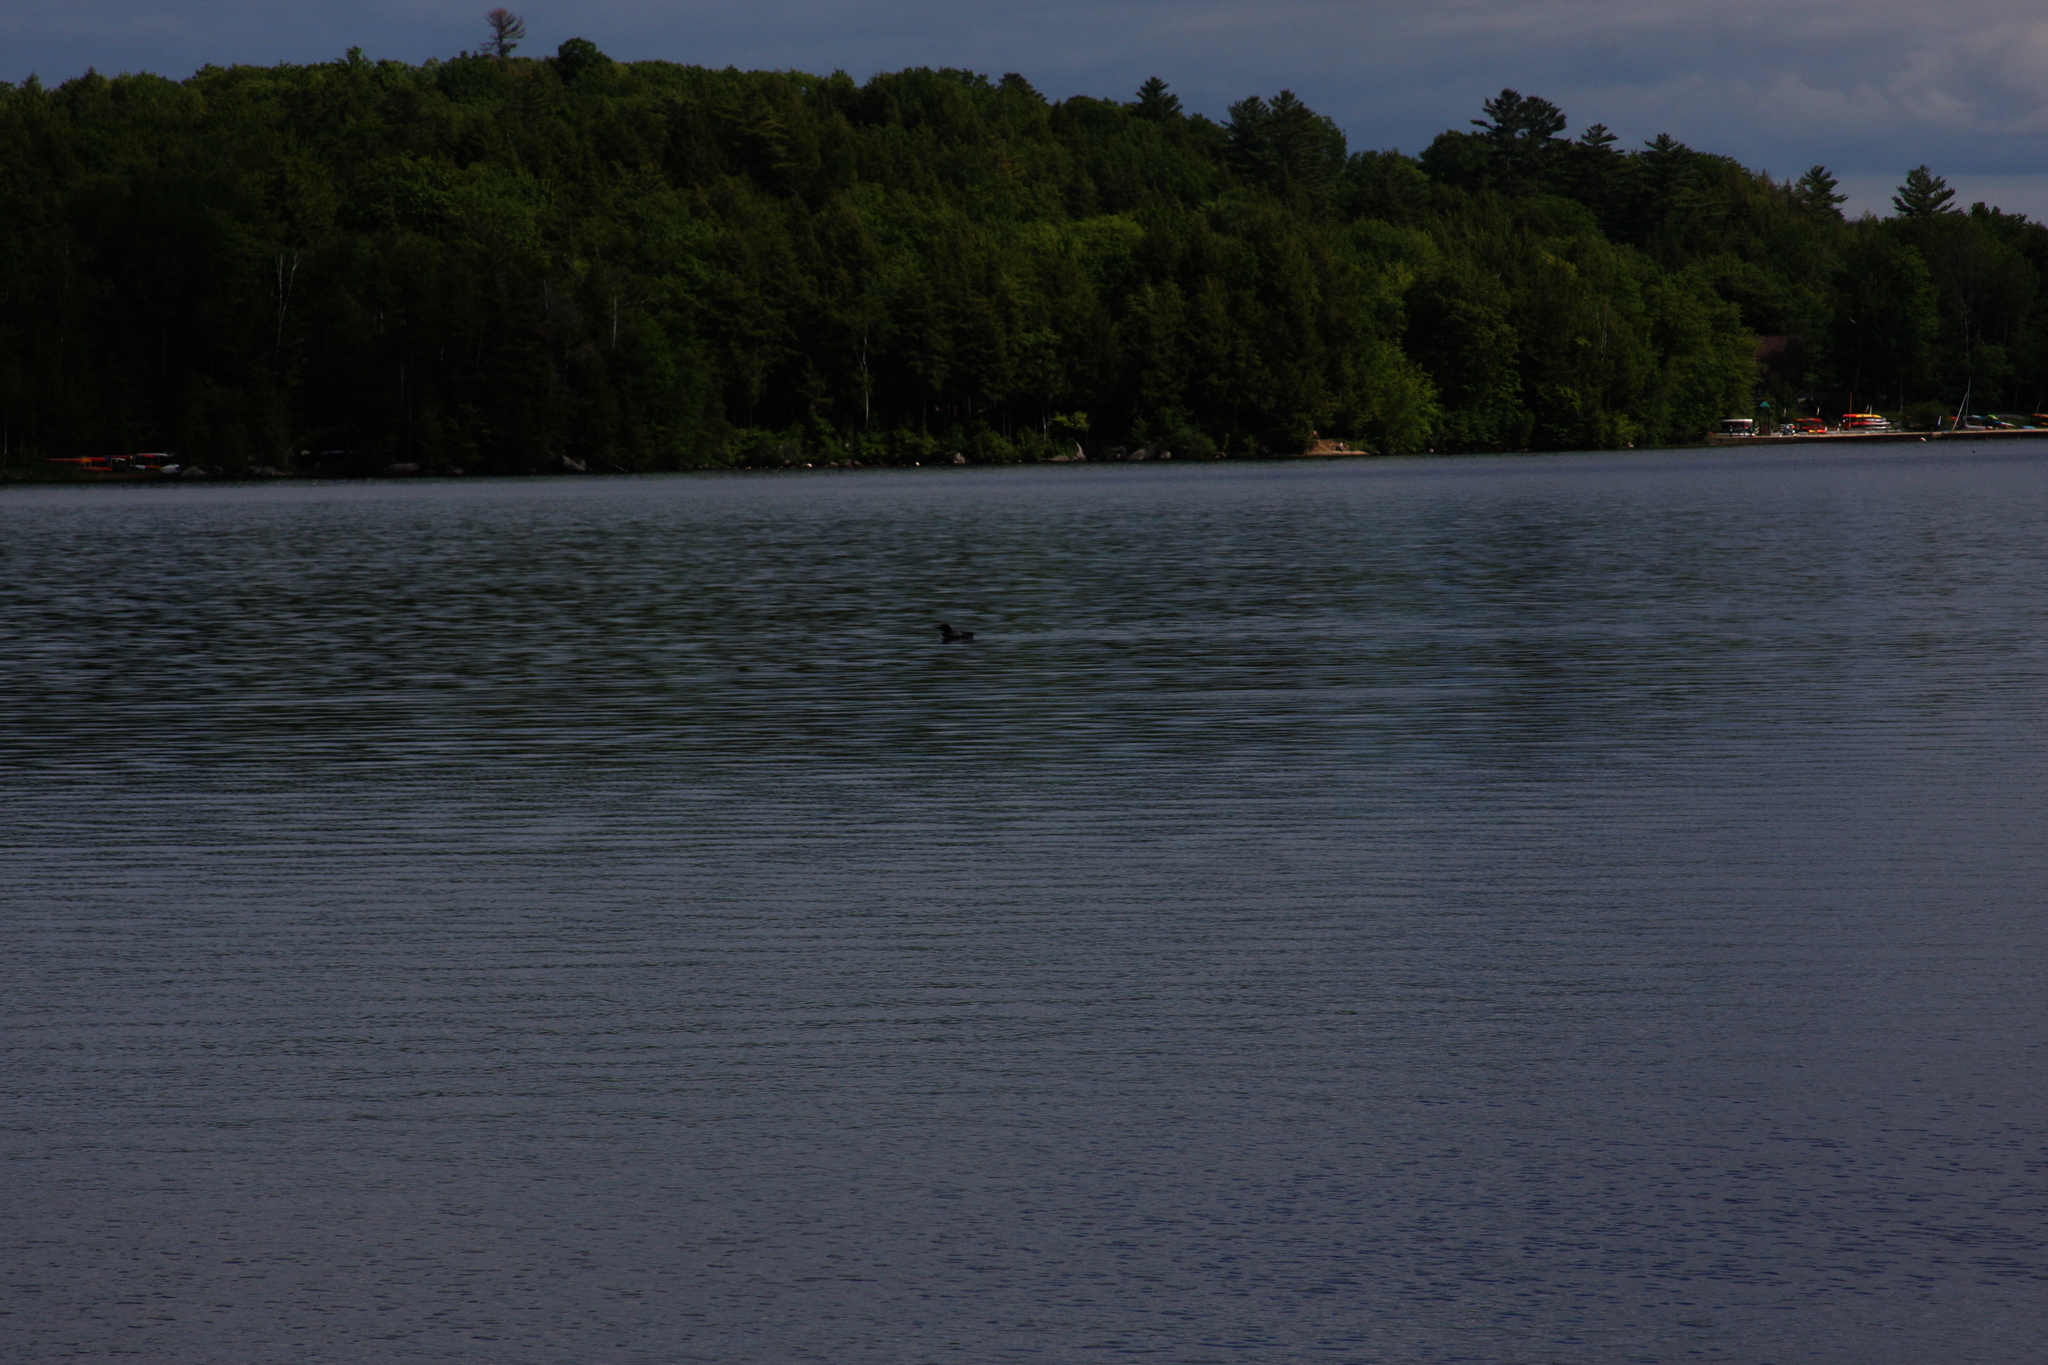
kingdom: Animalia
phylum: Chordata
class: Aves
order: Gaviiformes
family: Gaviidae
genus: Gavia
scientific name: Gavia immer
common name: Common loon
